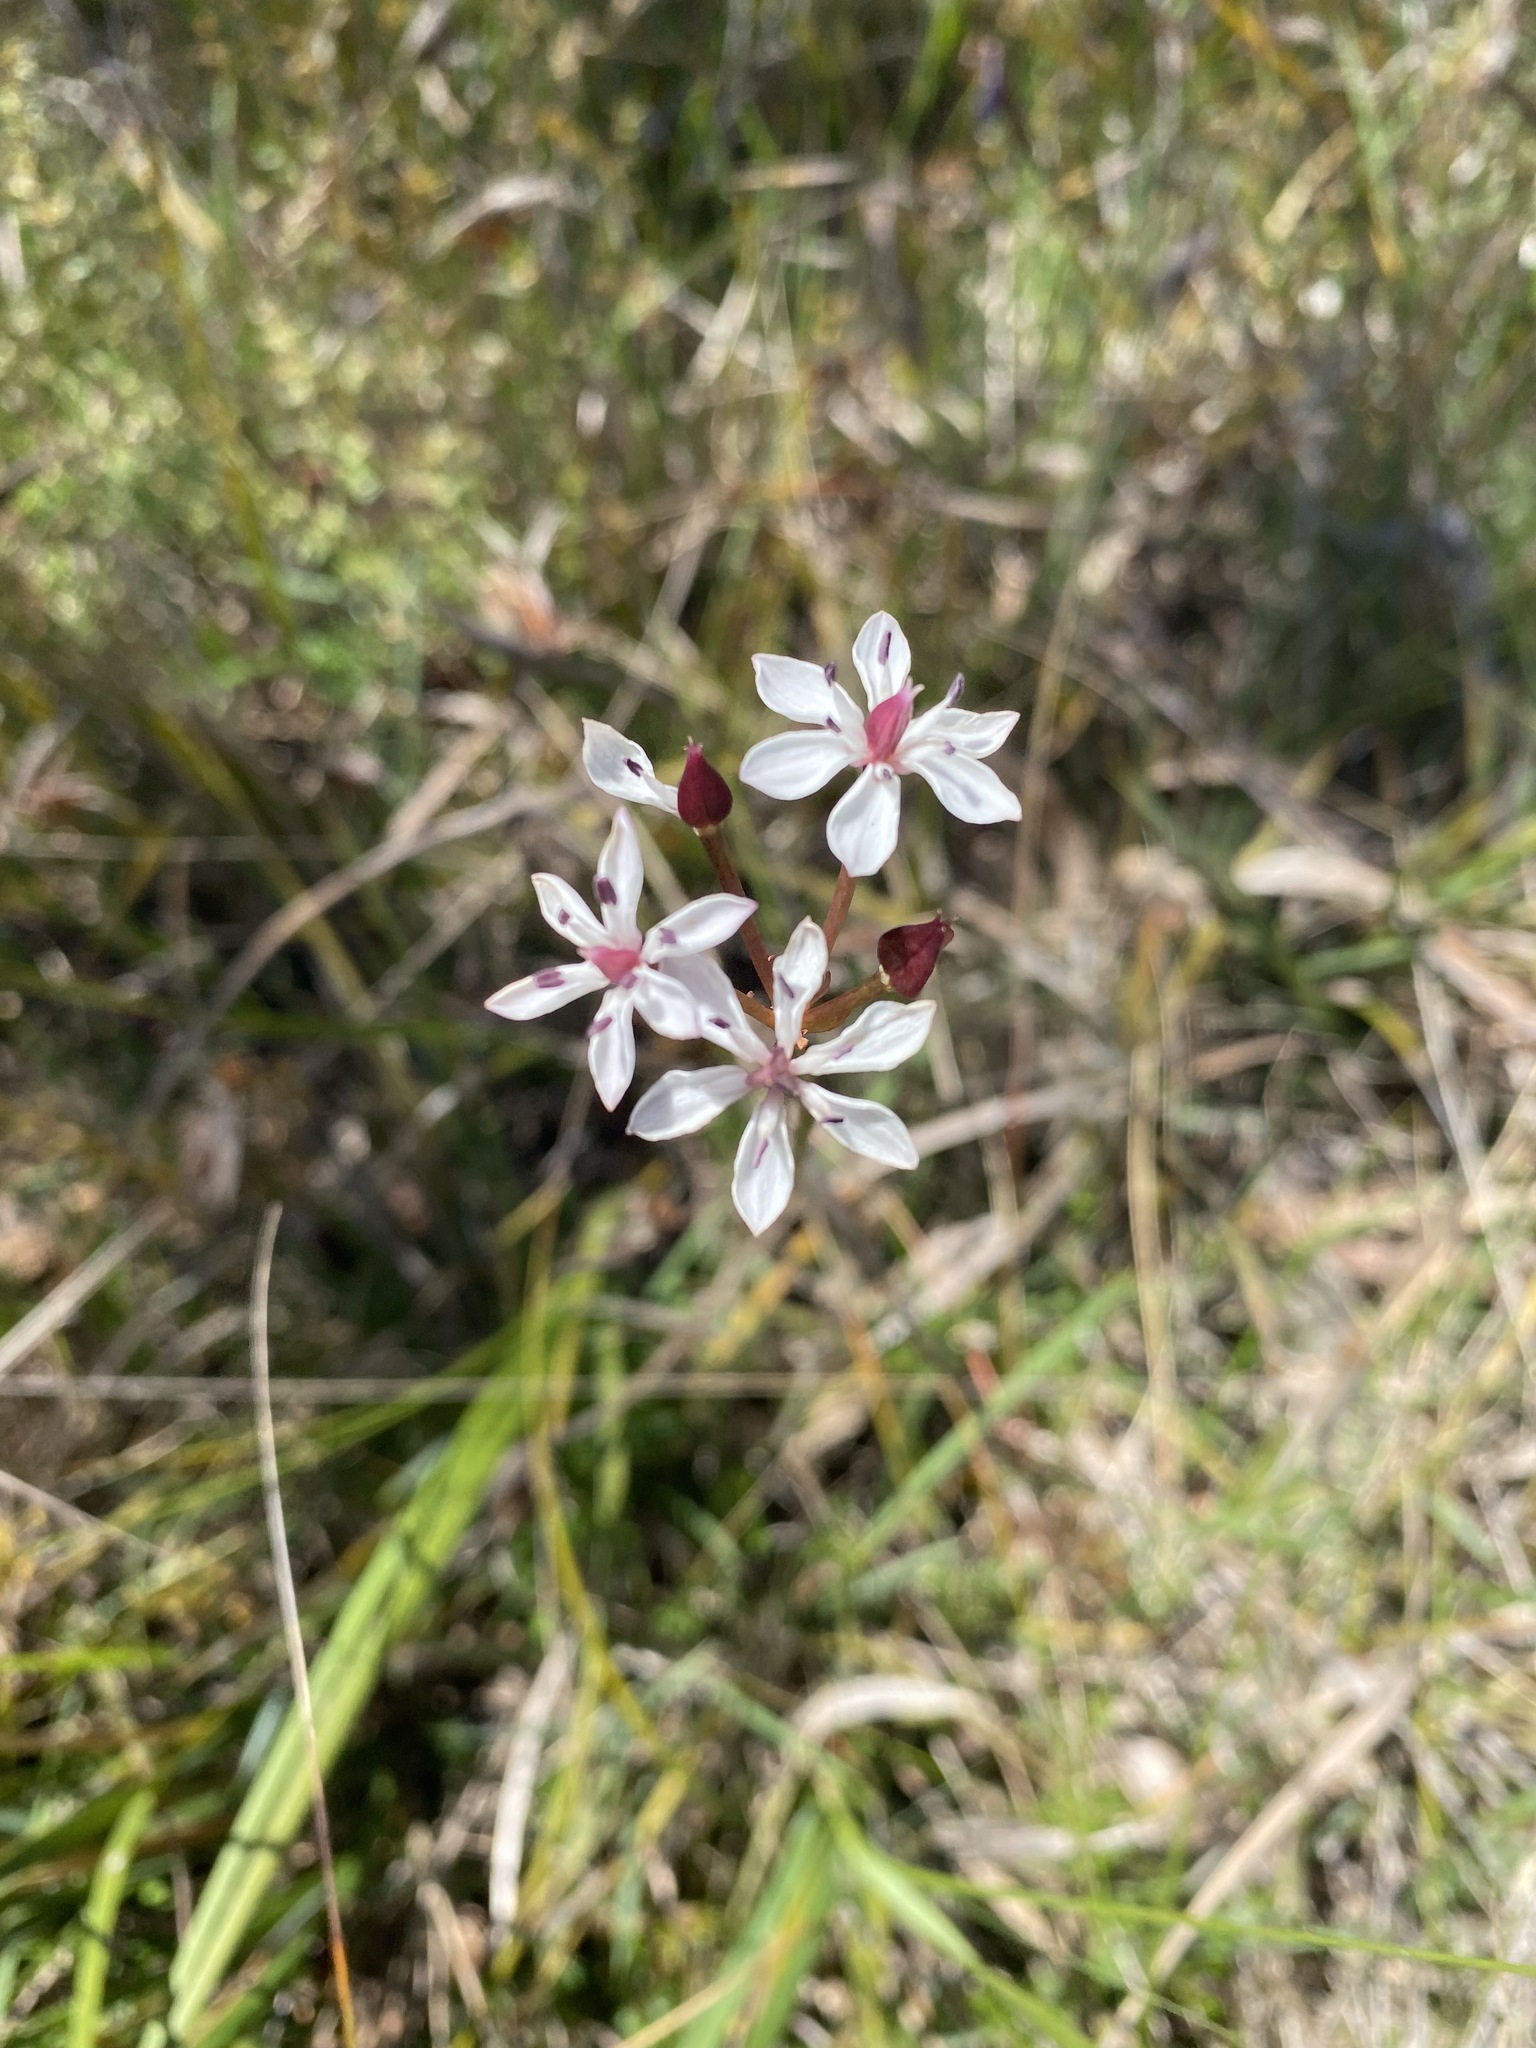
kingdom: Plantae
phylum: Tracheophyta
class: Liliopsida
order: Liliales
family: Colchicaceae
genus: Burchardia
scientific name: Burchardia umbellata
